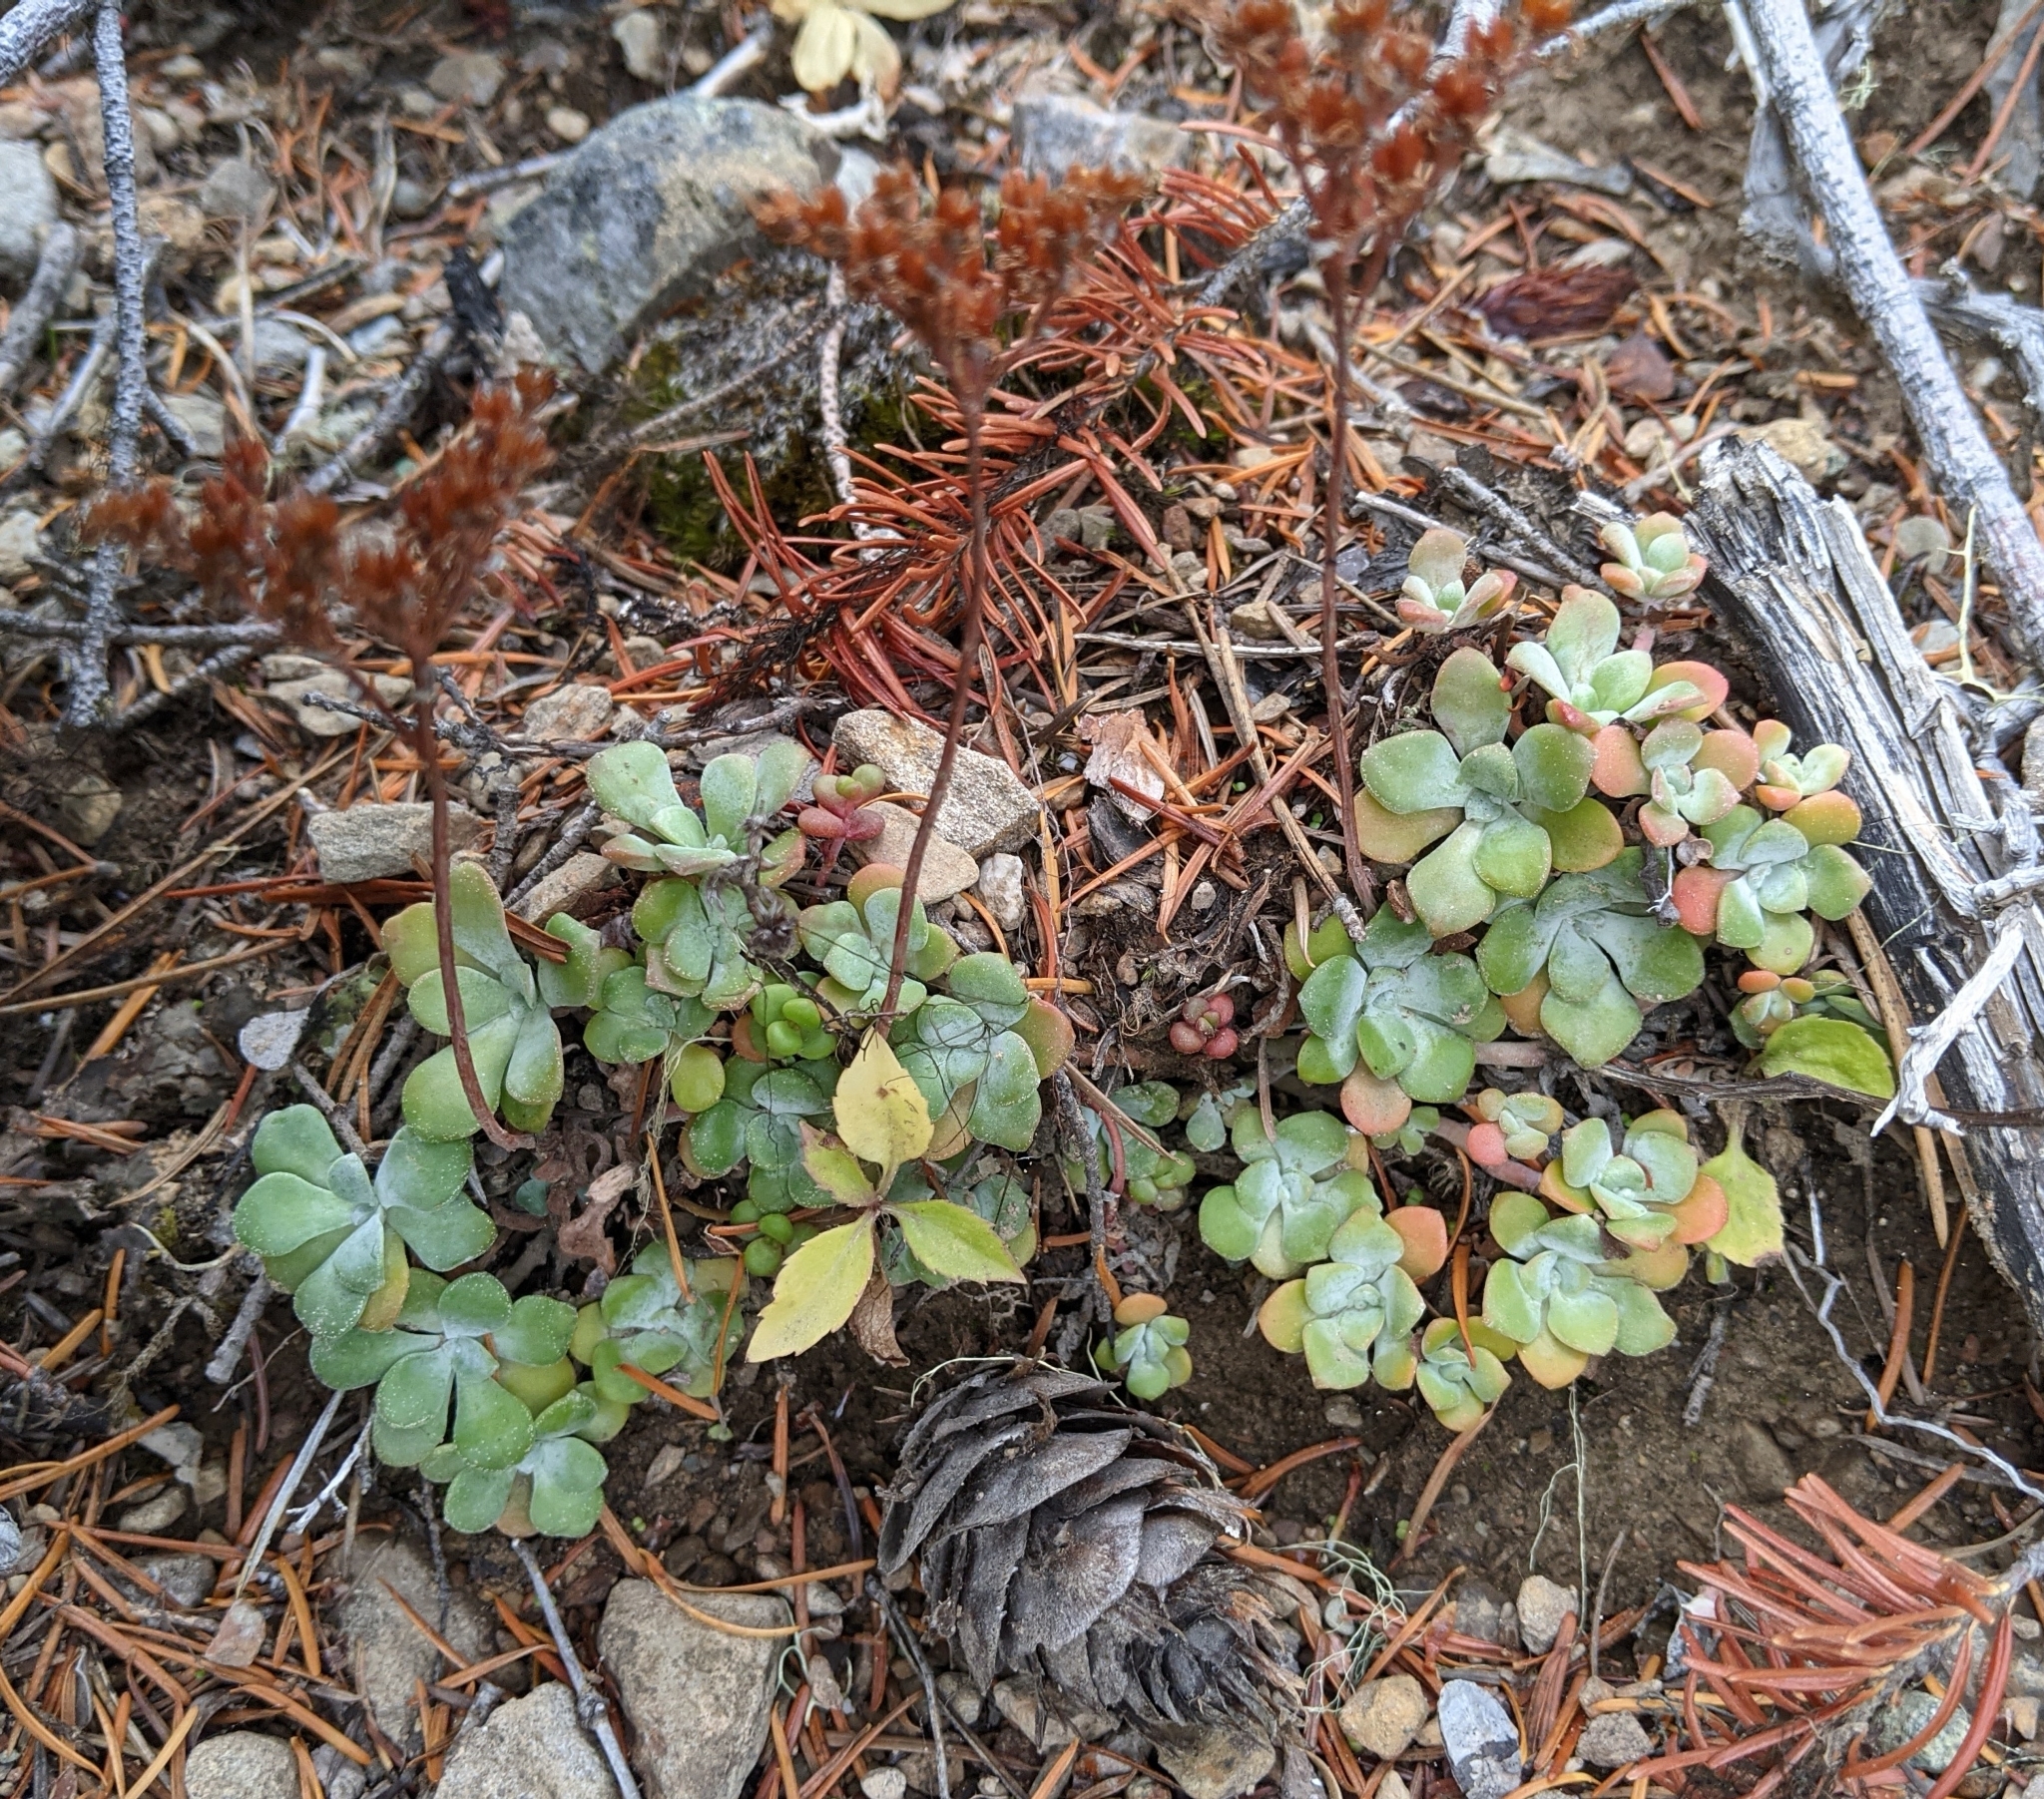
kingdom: Plantae
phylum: Tracheophyta
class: Magnoliopsida
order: Saxifragales
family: Crassulaceae
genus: Sedum
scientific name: Sedum spathulifolium
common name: Colorado stonecrop
